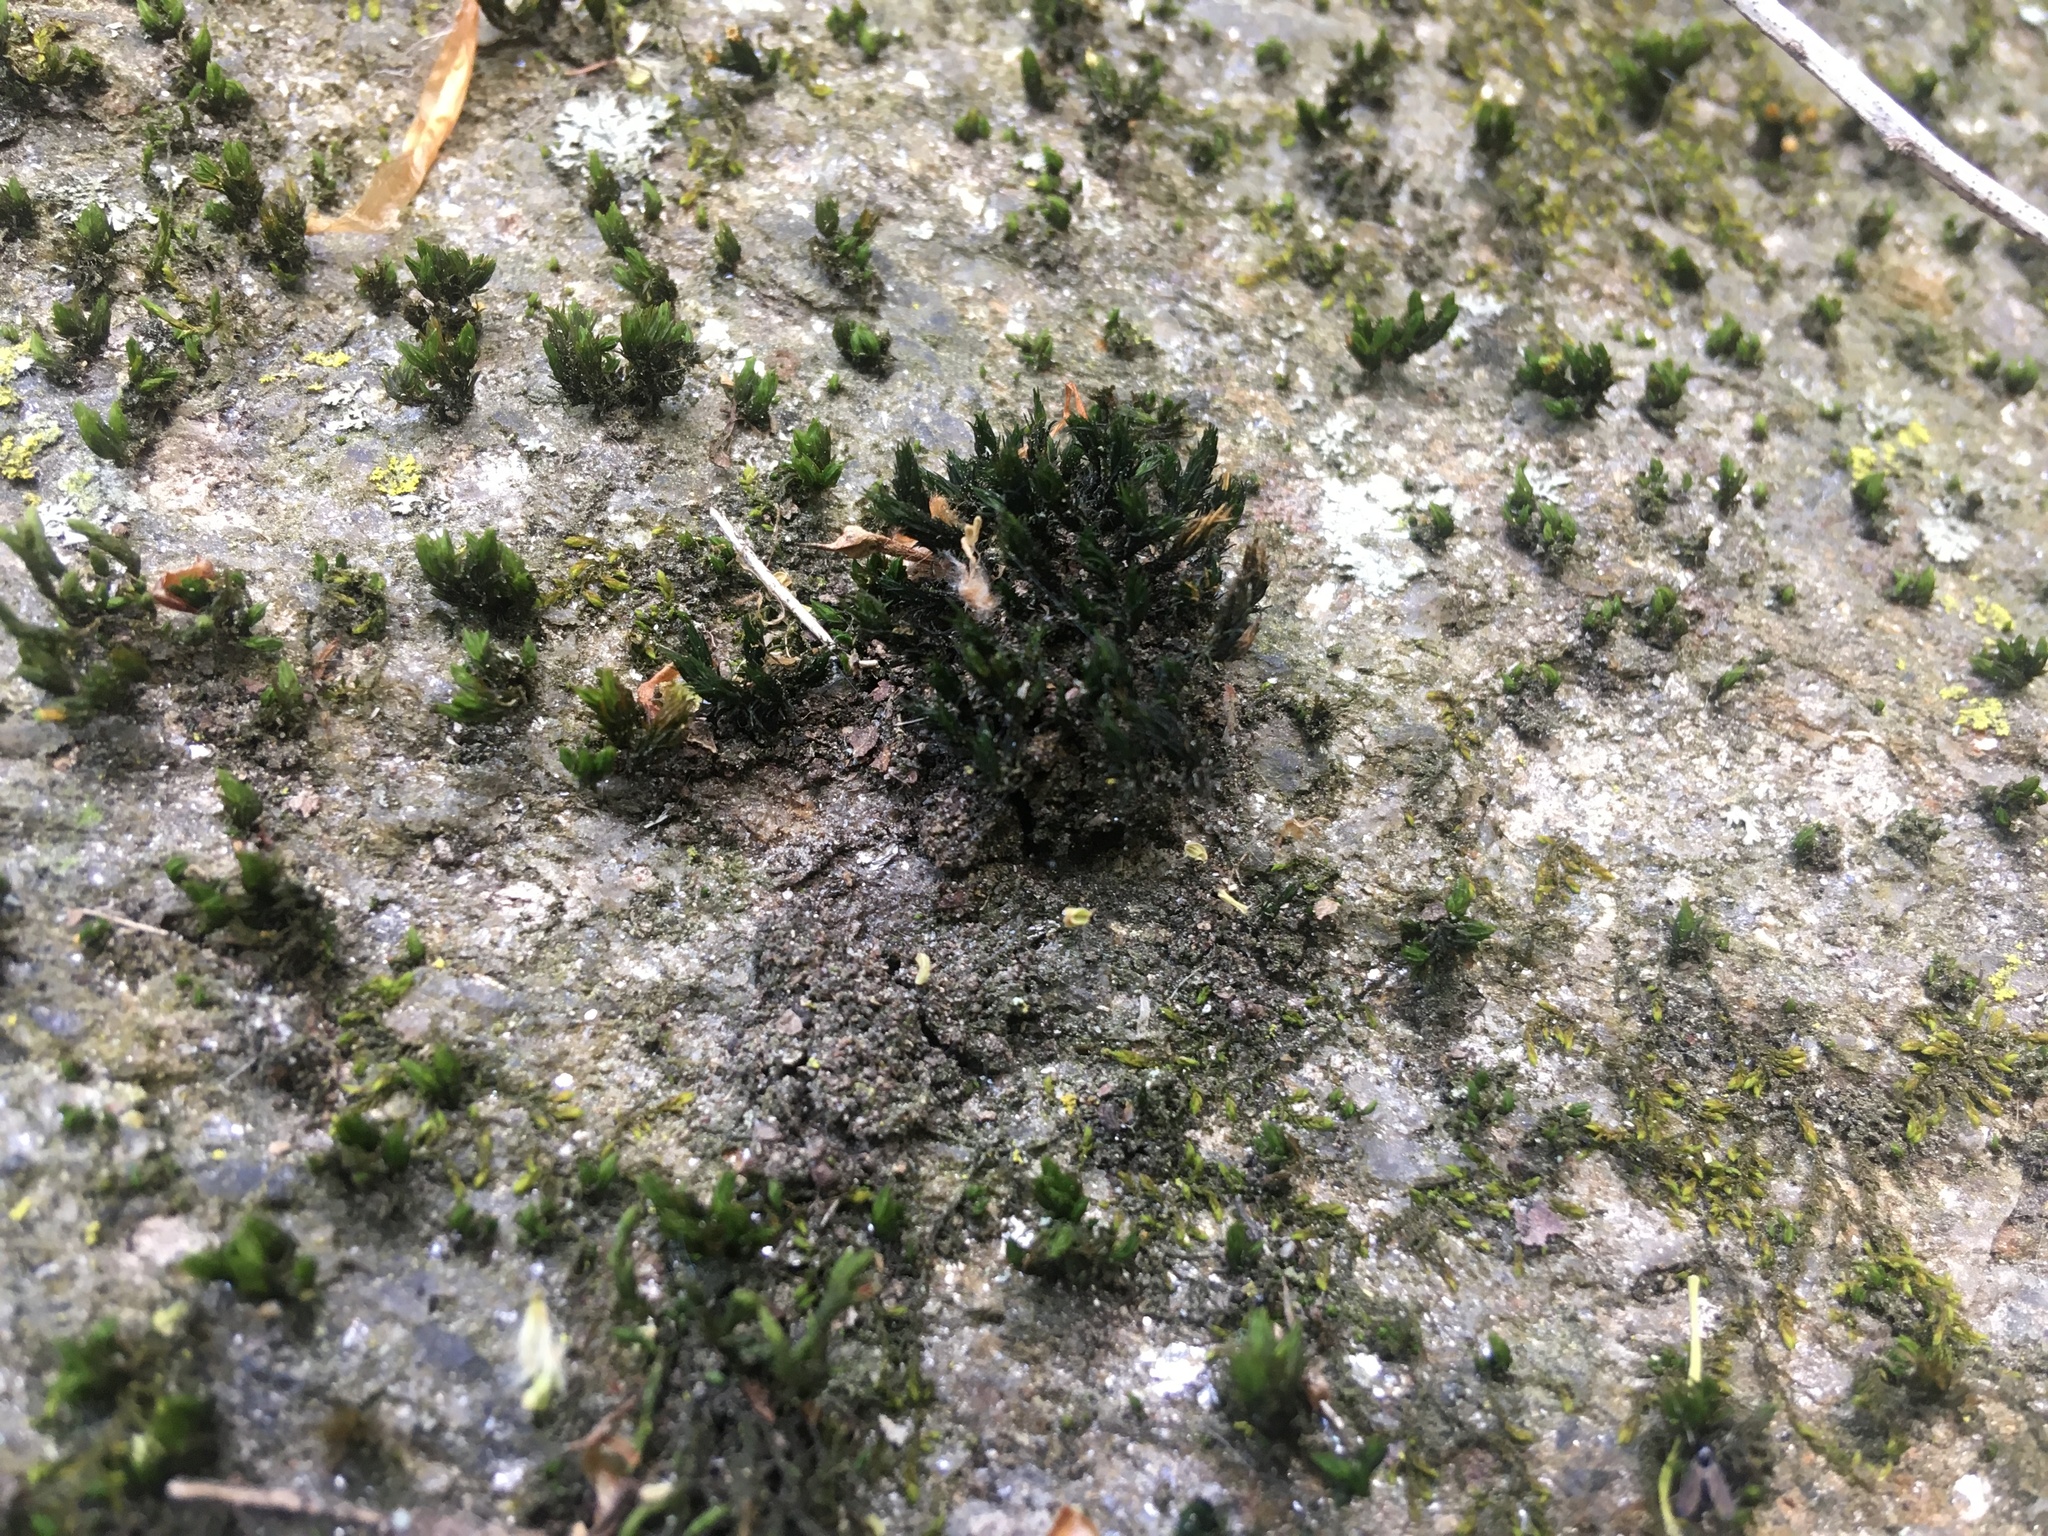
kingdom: Plantae
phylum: Bryophyta
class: Bryopsida
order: Orthotrichales
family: Orthotrichaceae
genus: Orthotrichum
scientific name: Orthotrichum anomalum
